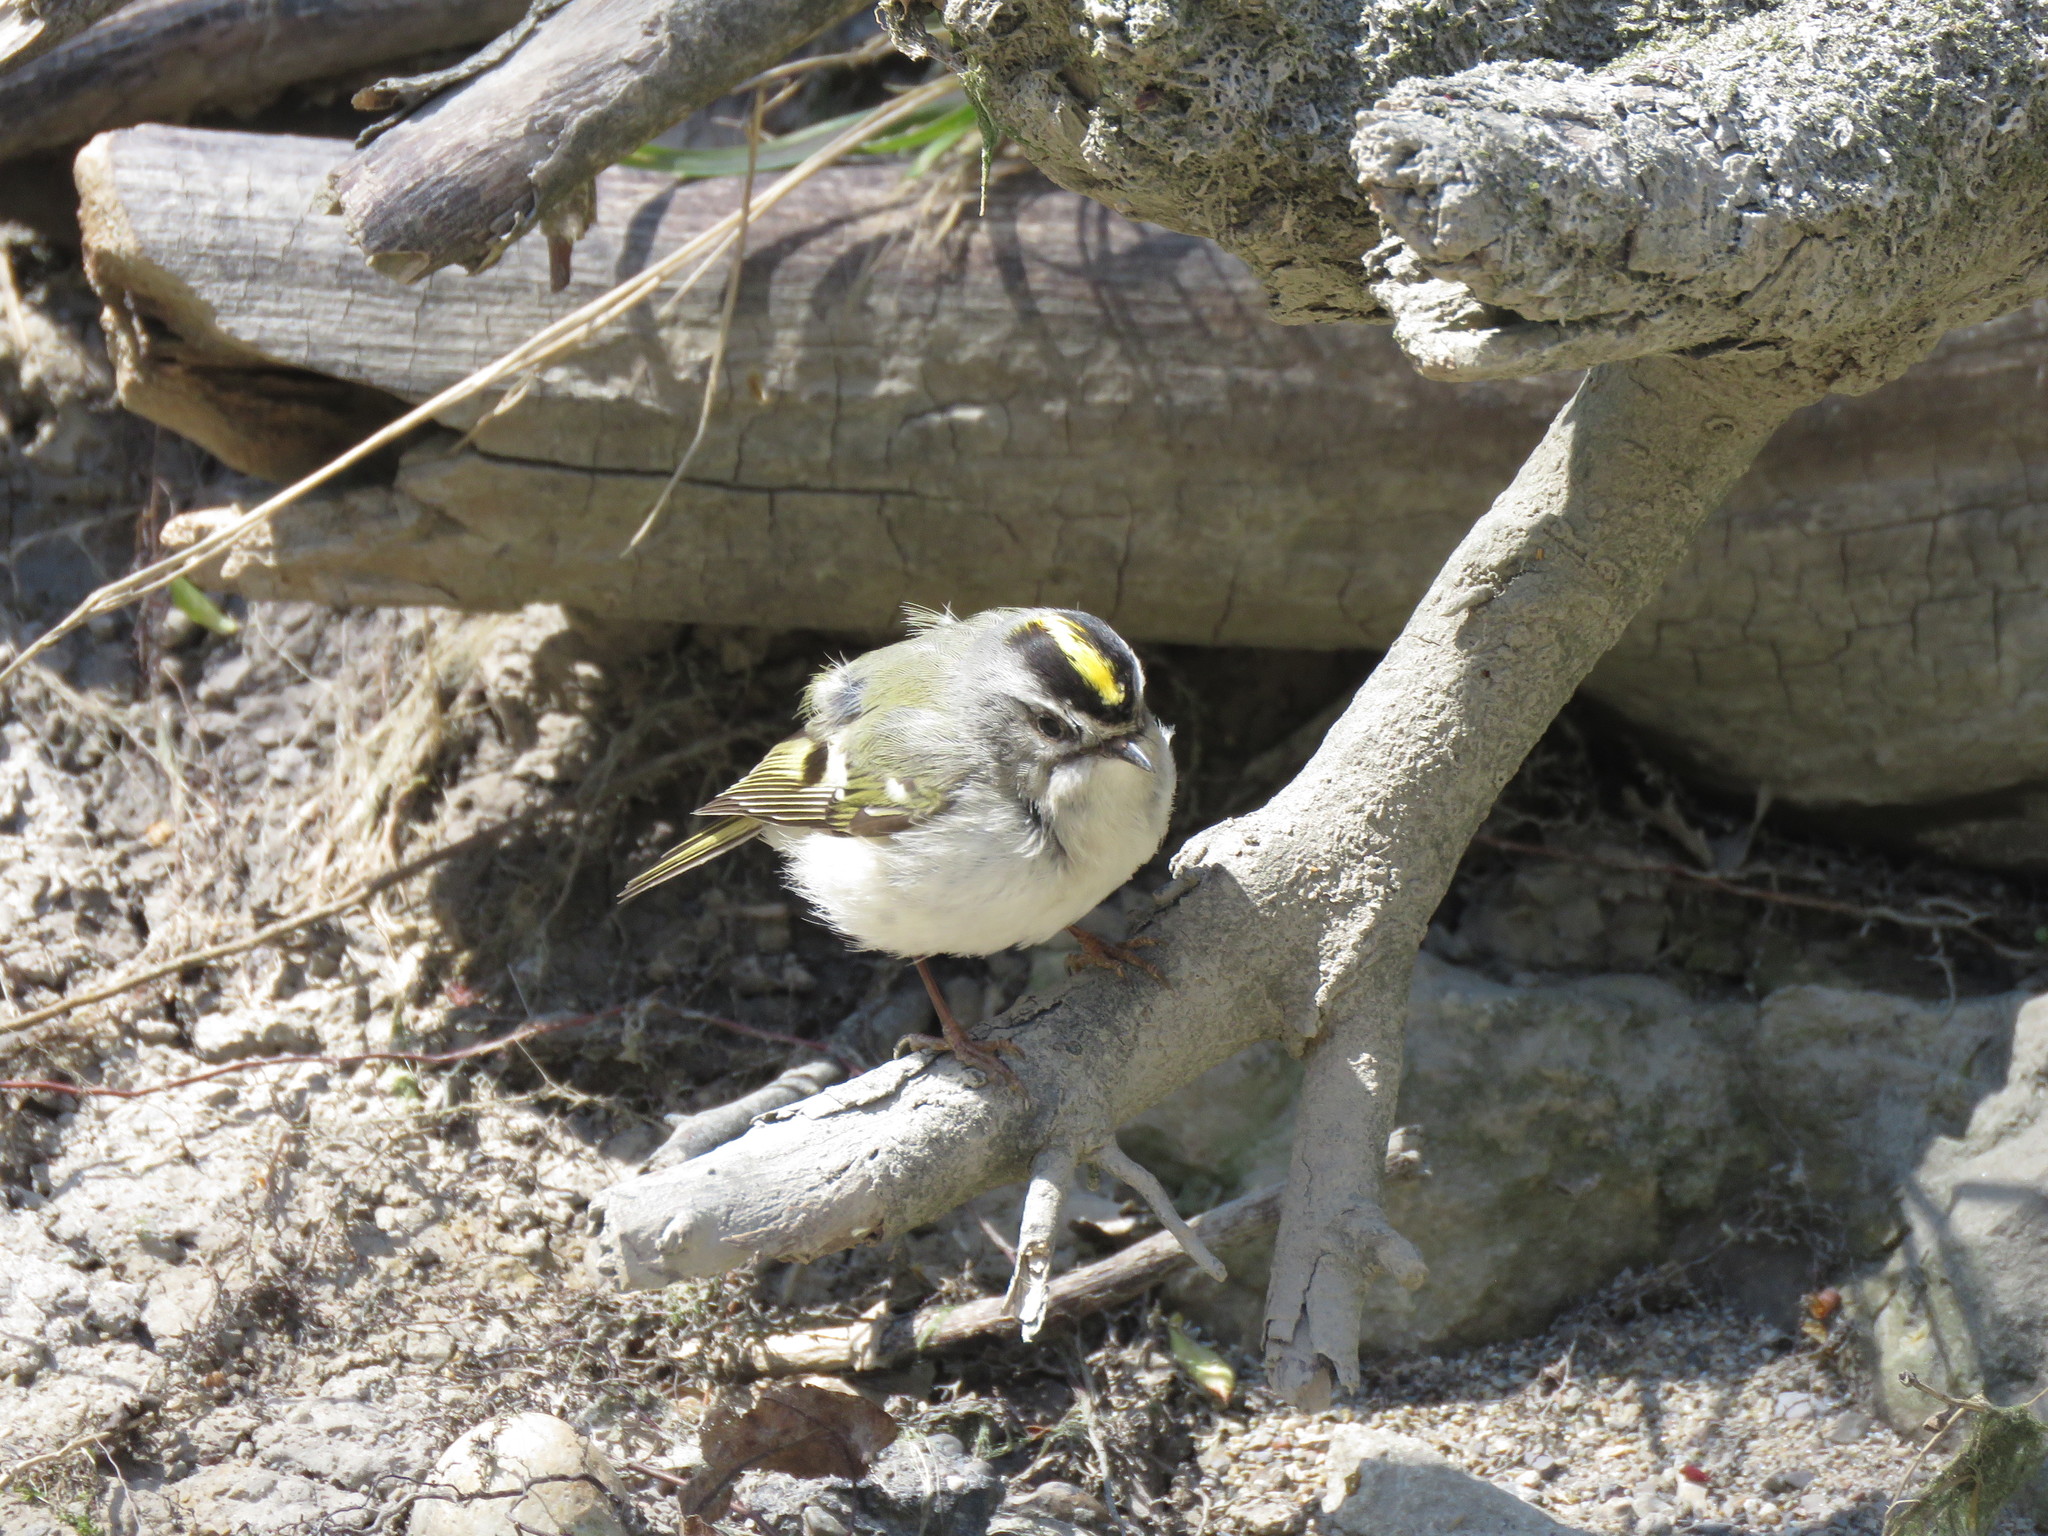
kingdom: Animalia
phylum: Chordata
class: Aves
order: Passeriformes
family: Regulidae
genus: Regulus
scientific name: Regulus satrapa
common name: Golden-crowned kinglet
